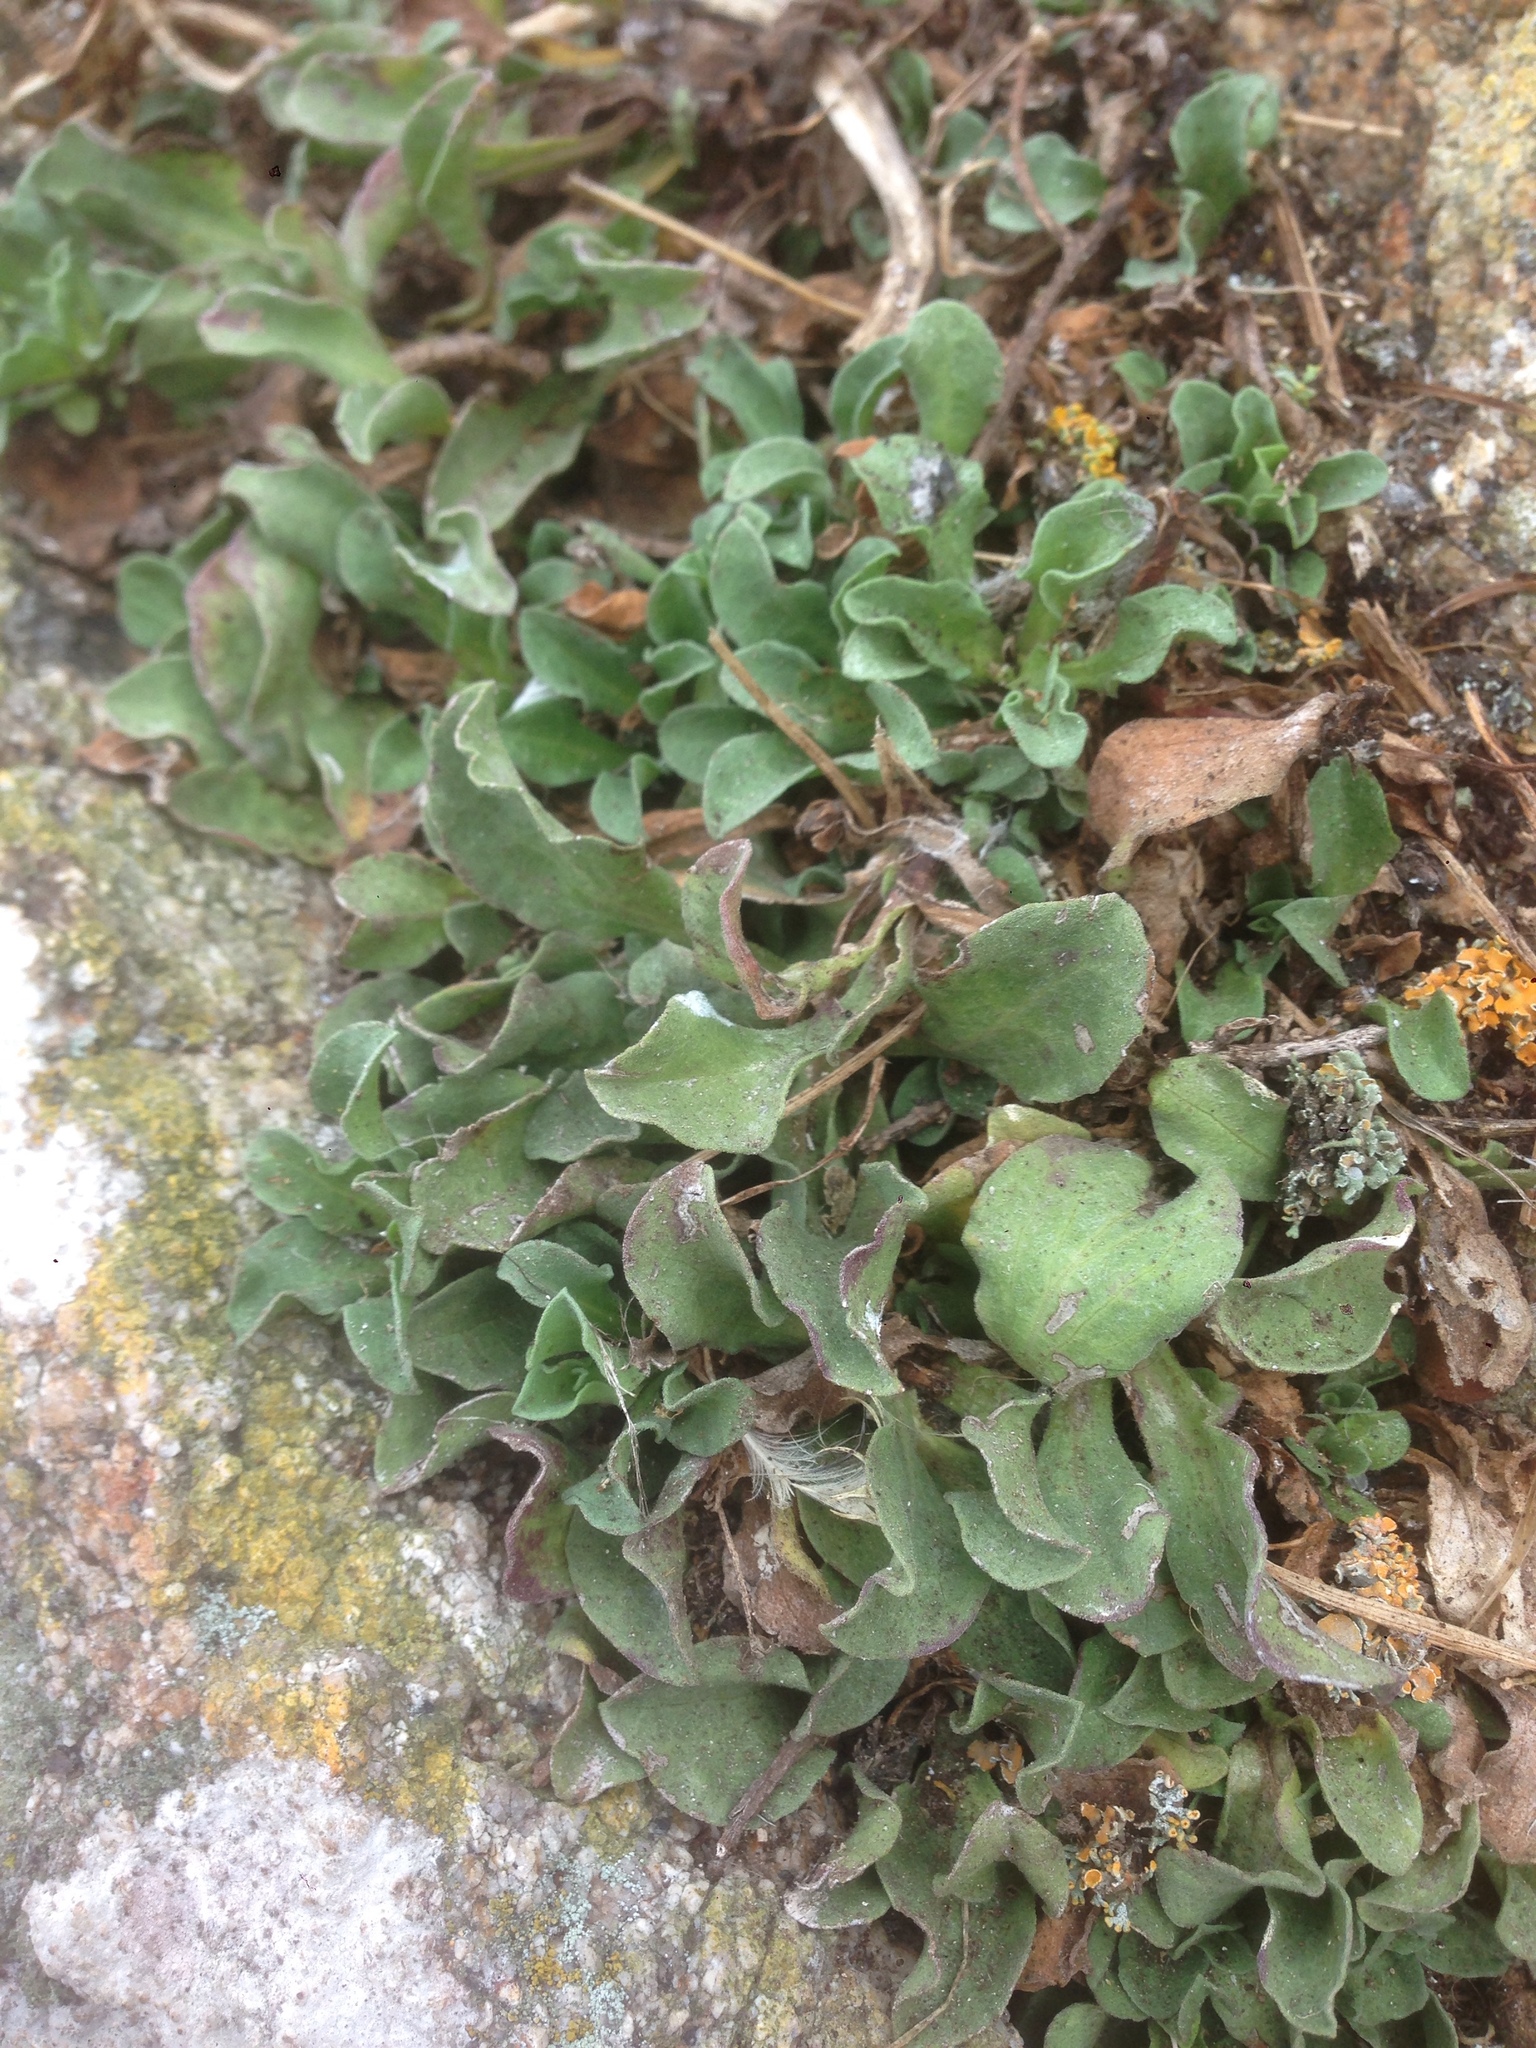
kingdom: Plantae
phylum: Tracheophyta
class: Magnoliopsida
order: Asterales
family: Asteraceae
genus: Erigeron
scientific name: Erigeron glaucus
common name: Seaside daisy
